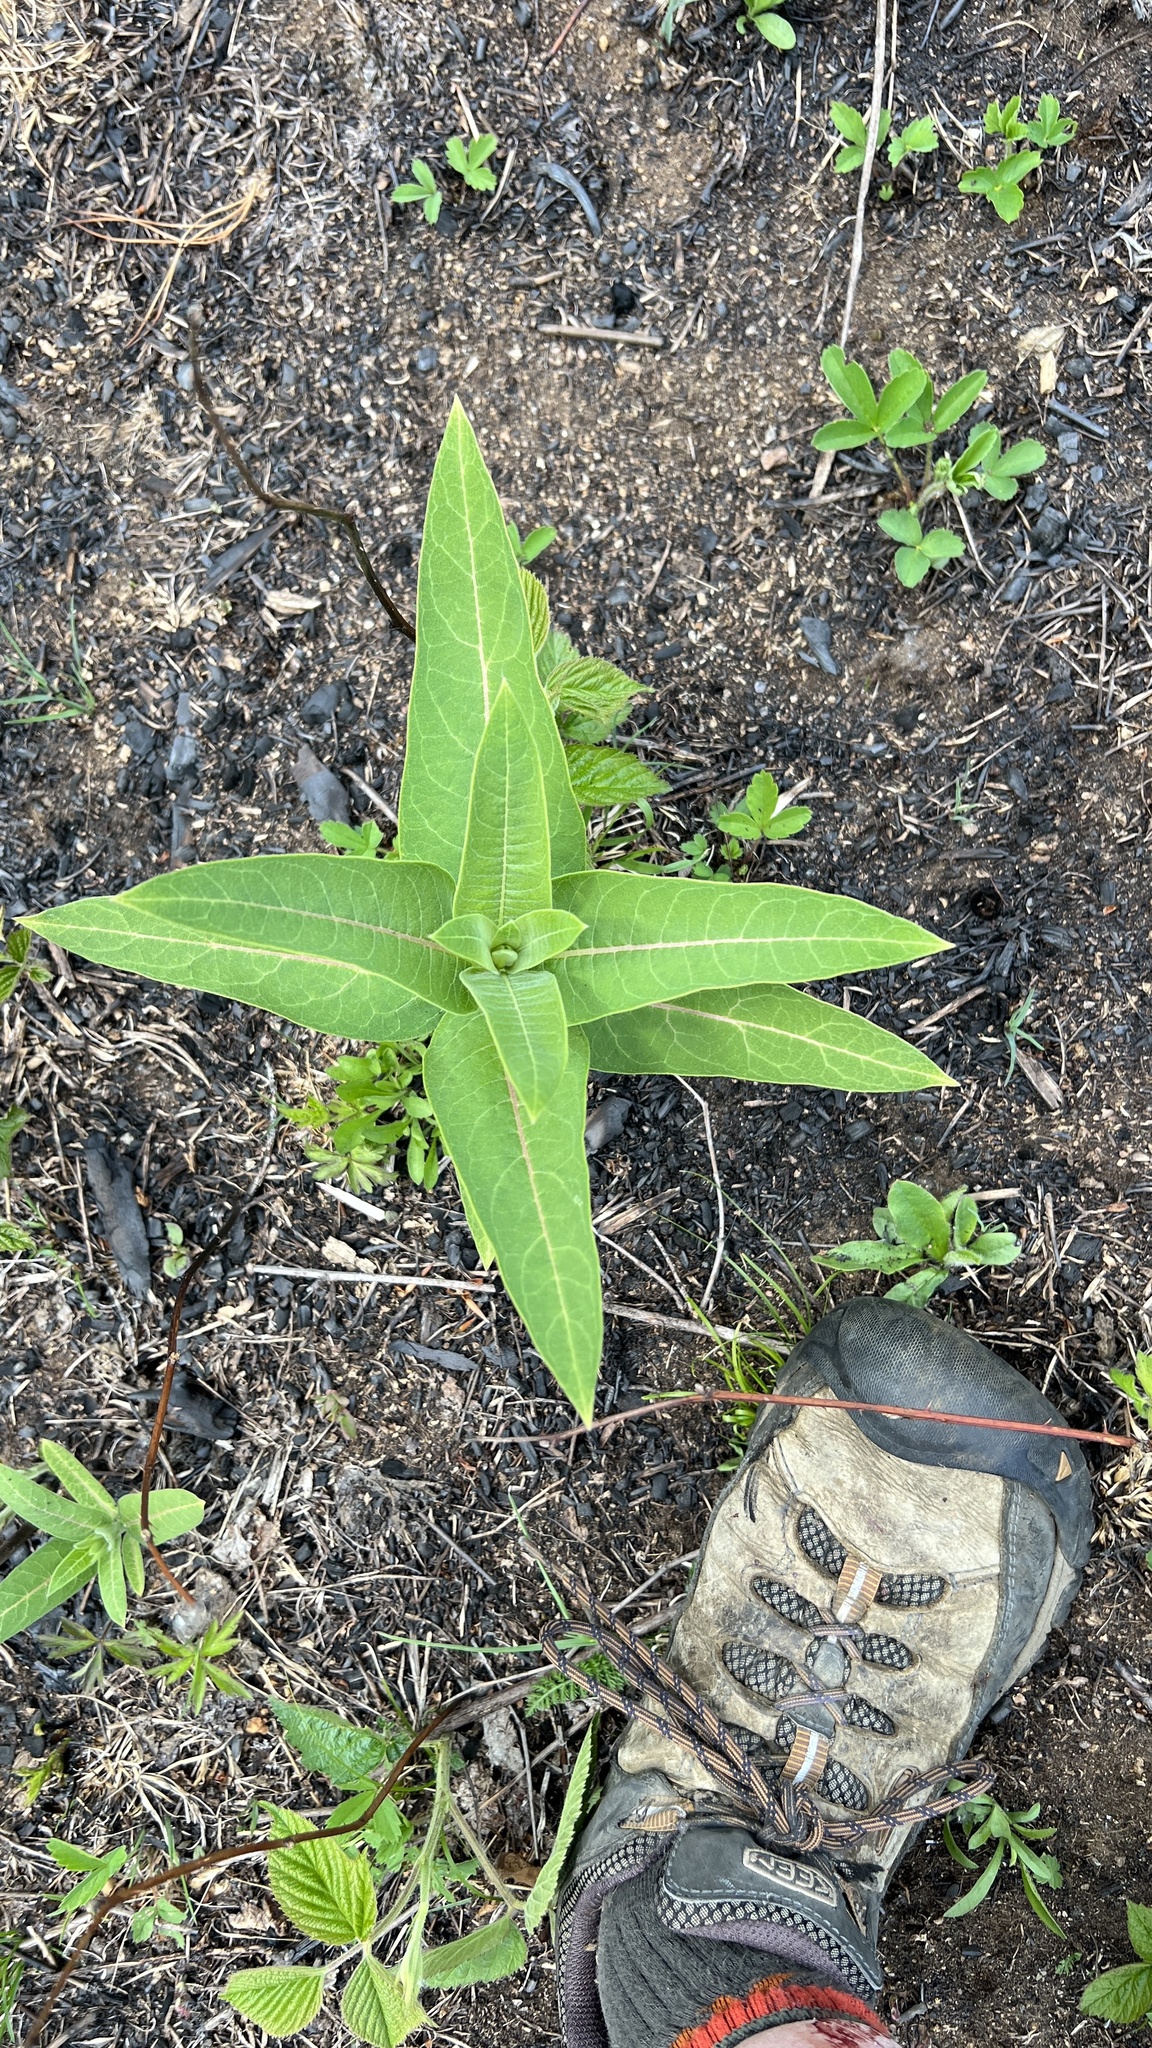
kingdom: Plantae
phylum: Tracheophyta
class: Magnoliopsida
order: Gentianales
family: Apocynaceae
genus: Asclepias
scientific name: Asclepias syriaca
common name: Common milkweed
